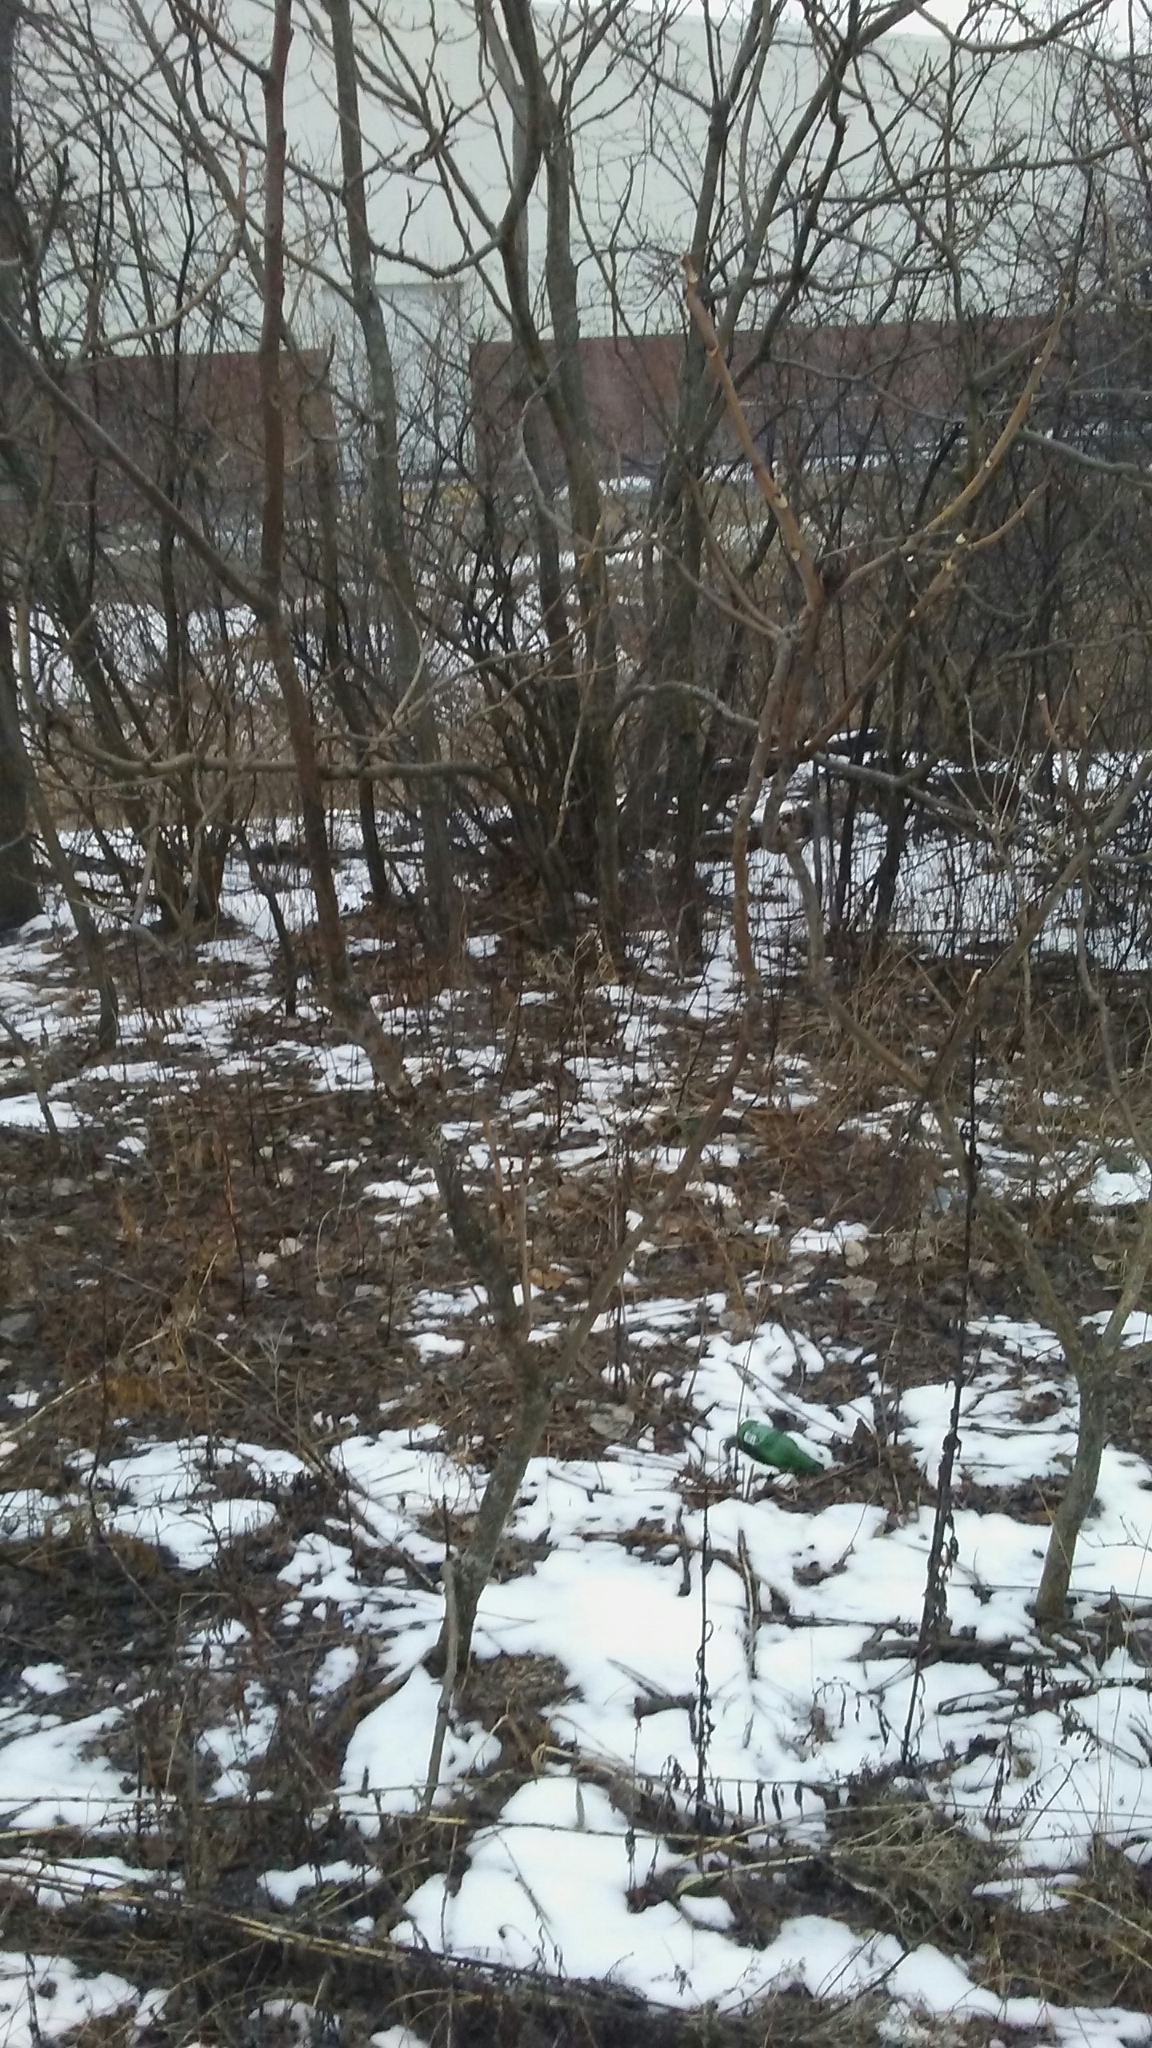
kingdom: Plantae
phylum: Tracheophyta
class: Magnoliopsida
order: Sapindales
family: Simaroubaceae
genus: Ailanthus
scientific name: Ailanthus altissima
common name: Tree-of-heaven
